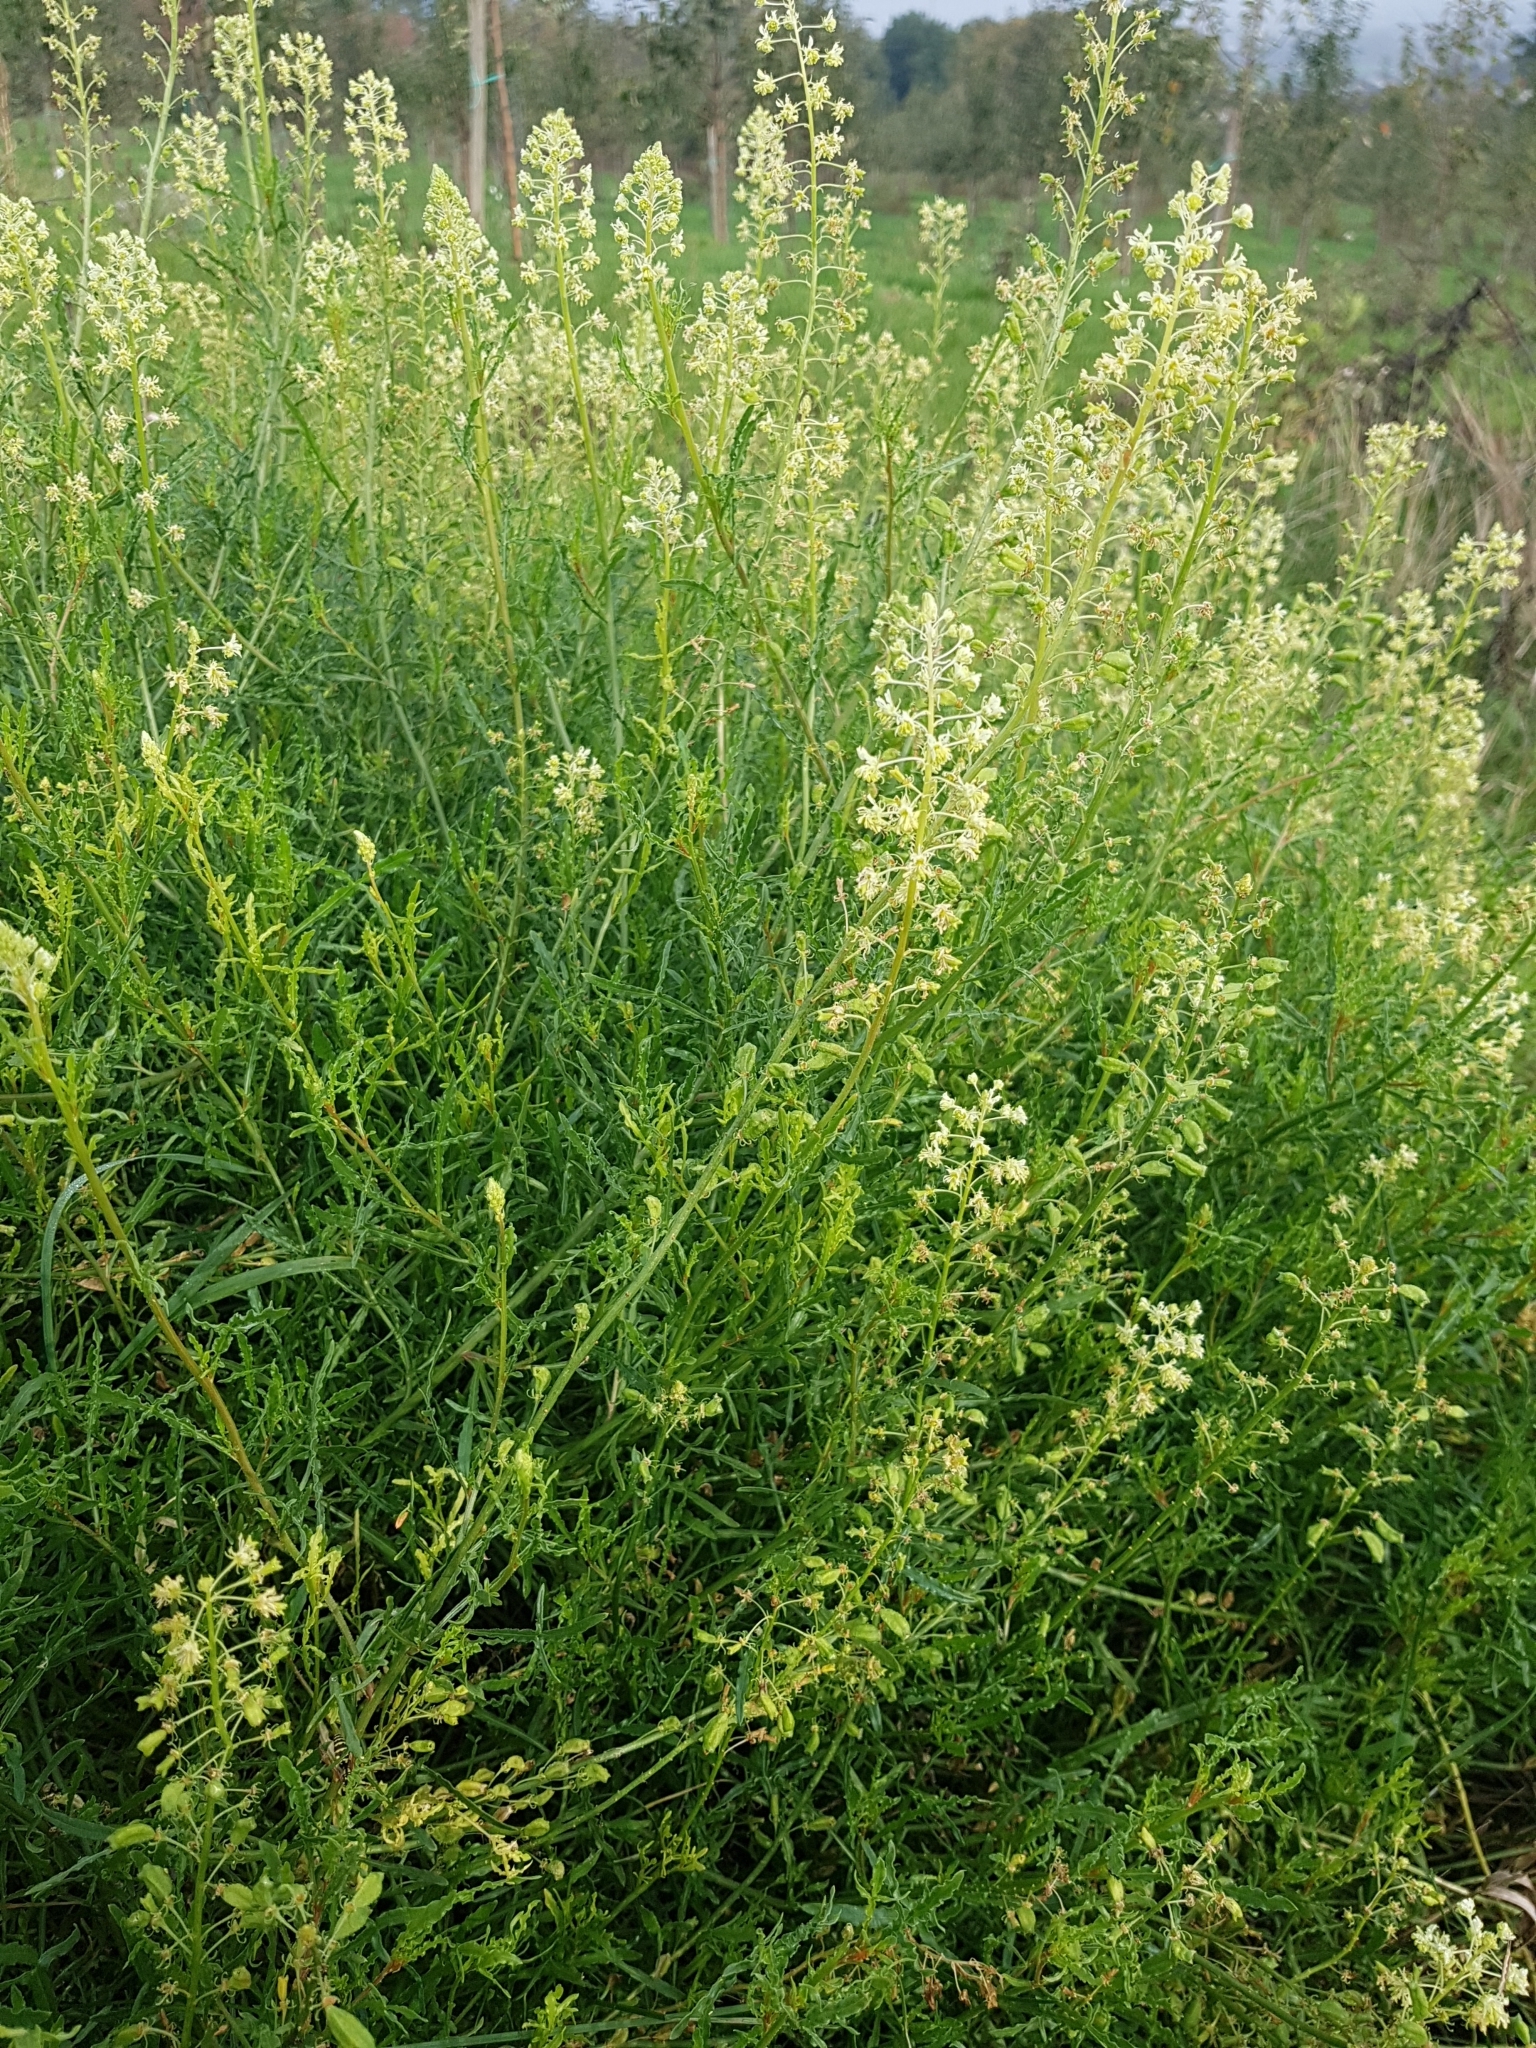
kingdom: Plantae
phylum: Tracheophyta
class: Magnoliopsida
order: Brassicales
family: Resedaceae
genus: Reseda
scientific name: Reseda lutea
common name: Wild mignonette
